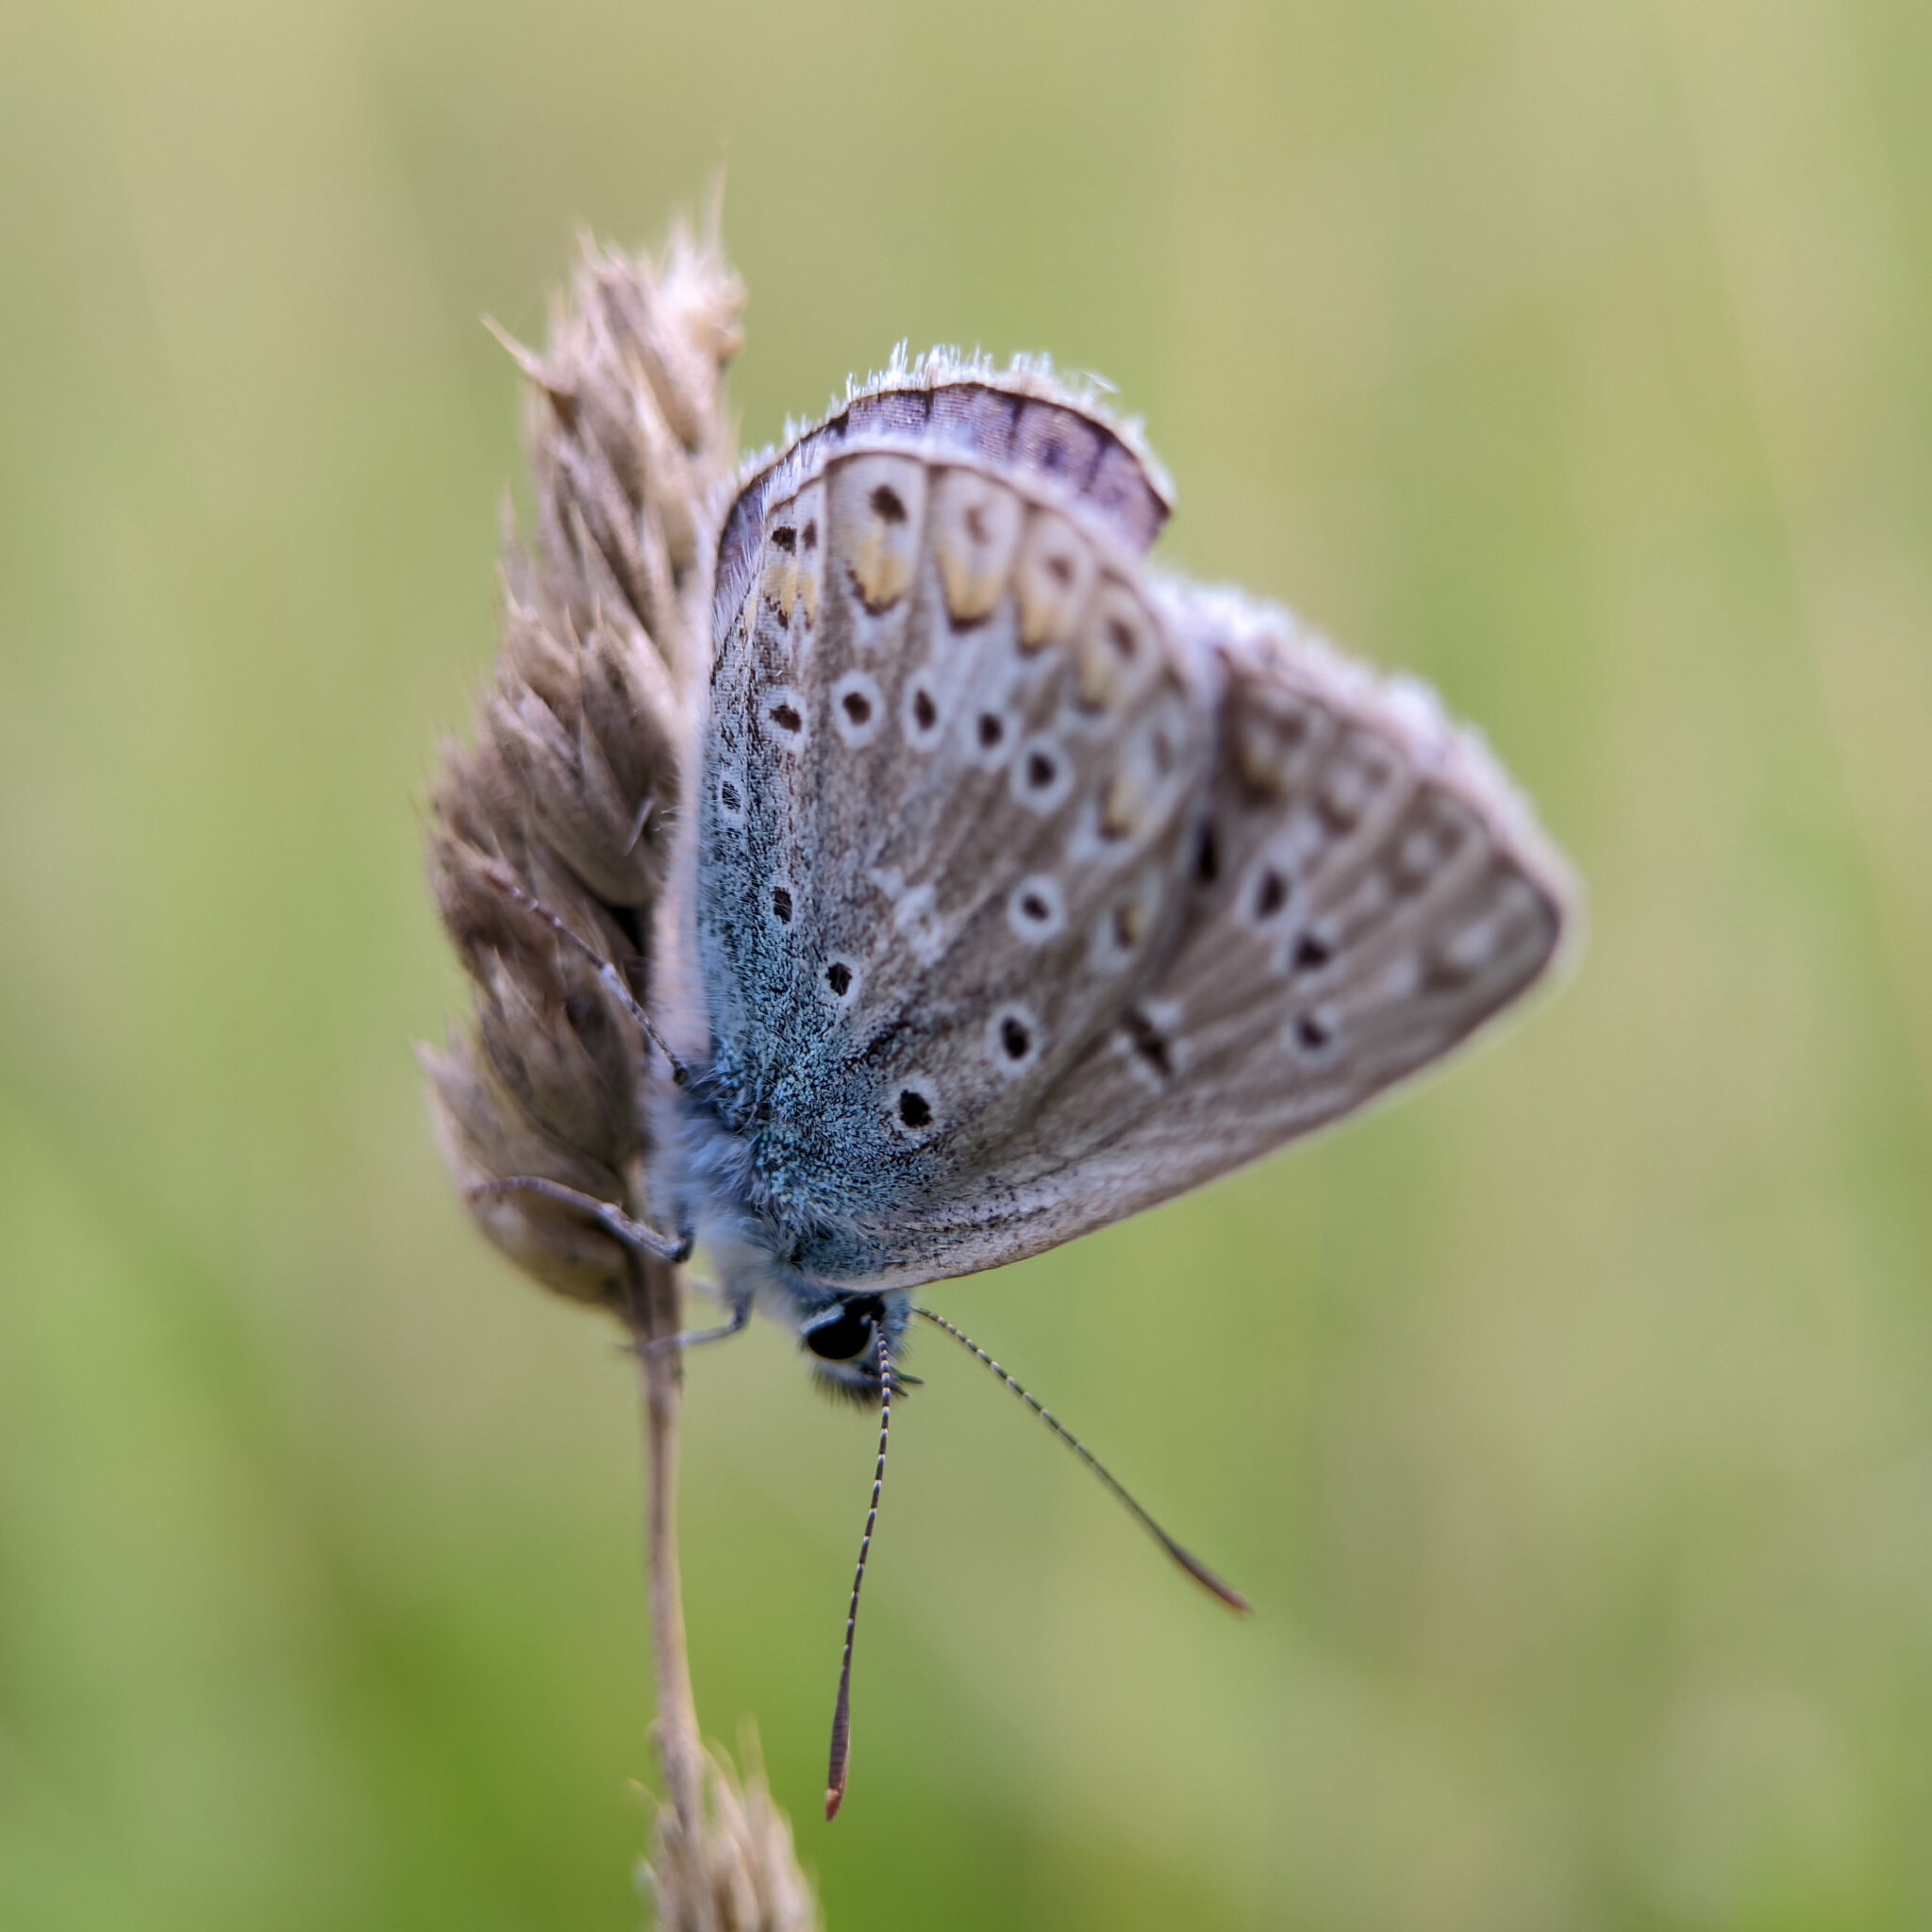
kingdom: Animalia
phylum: Arthropoda
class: Insecta
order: Lepidoptera
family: Lycaenidae
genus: Polyommatus
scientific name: Polyommatus icarus
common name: Common blue
